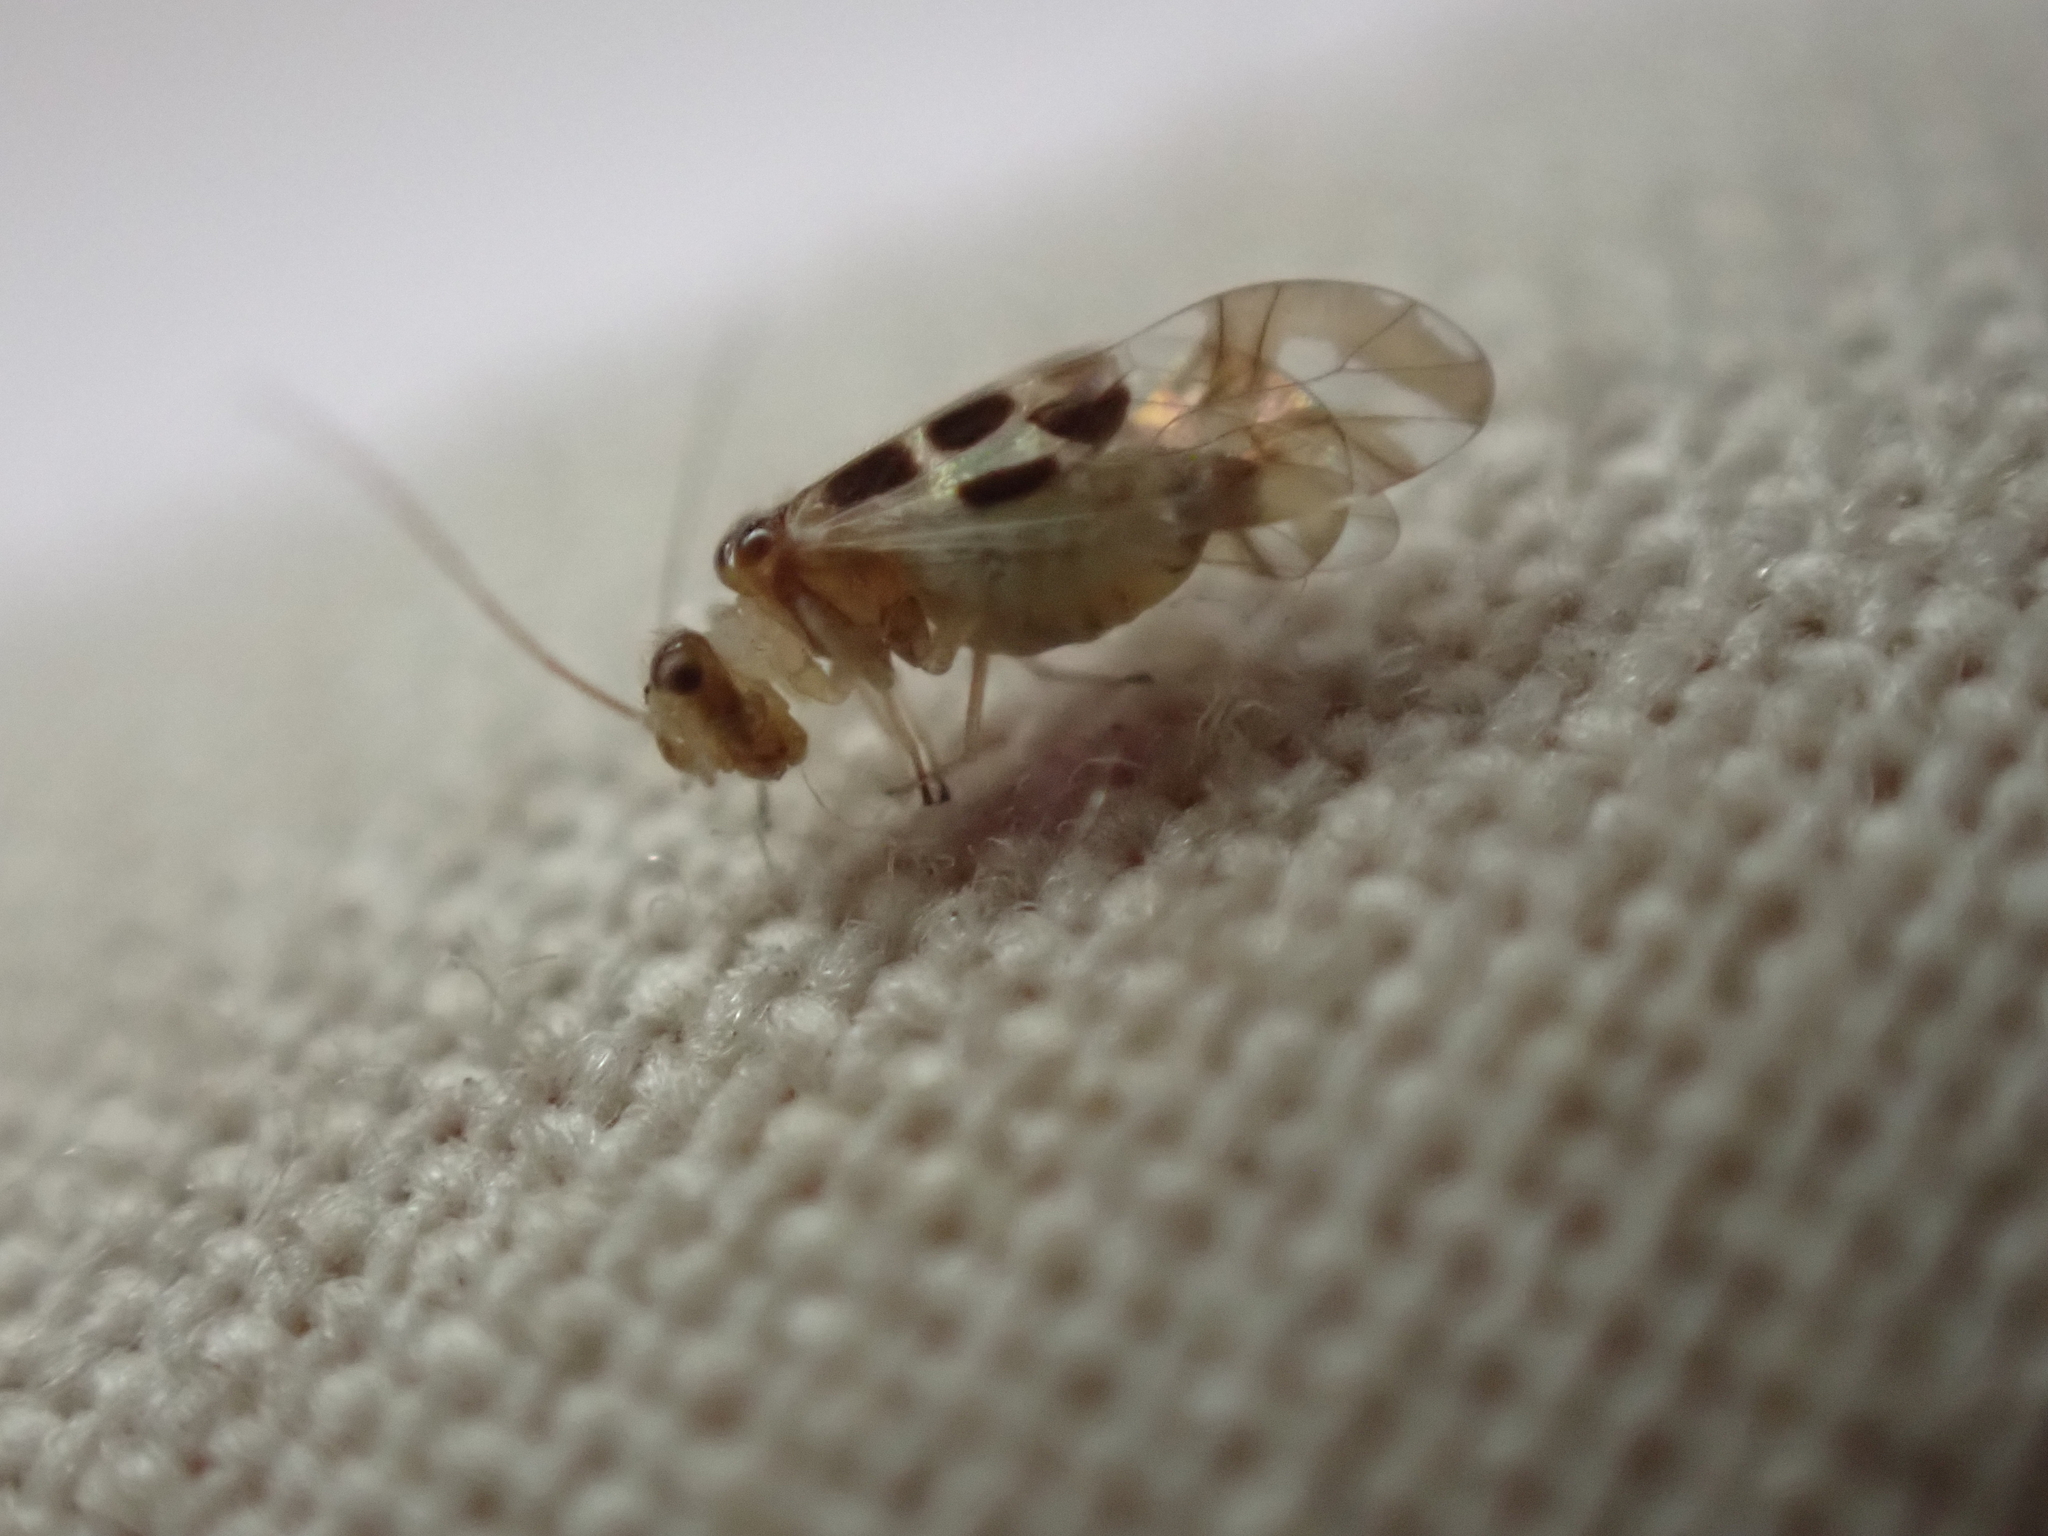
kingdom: Animalia
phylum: Arthropoda
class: Insecta
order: Psocodea
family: Stenopsocidae
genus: Graphopsocus
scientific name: Graphopsocus cruciatus
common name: Lizard bark louse
